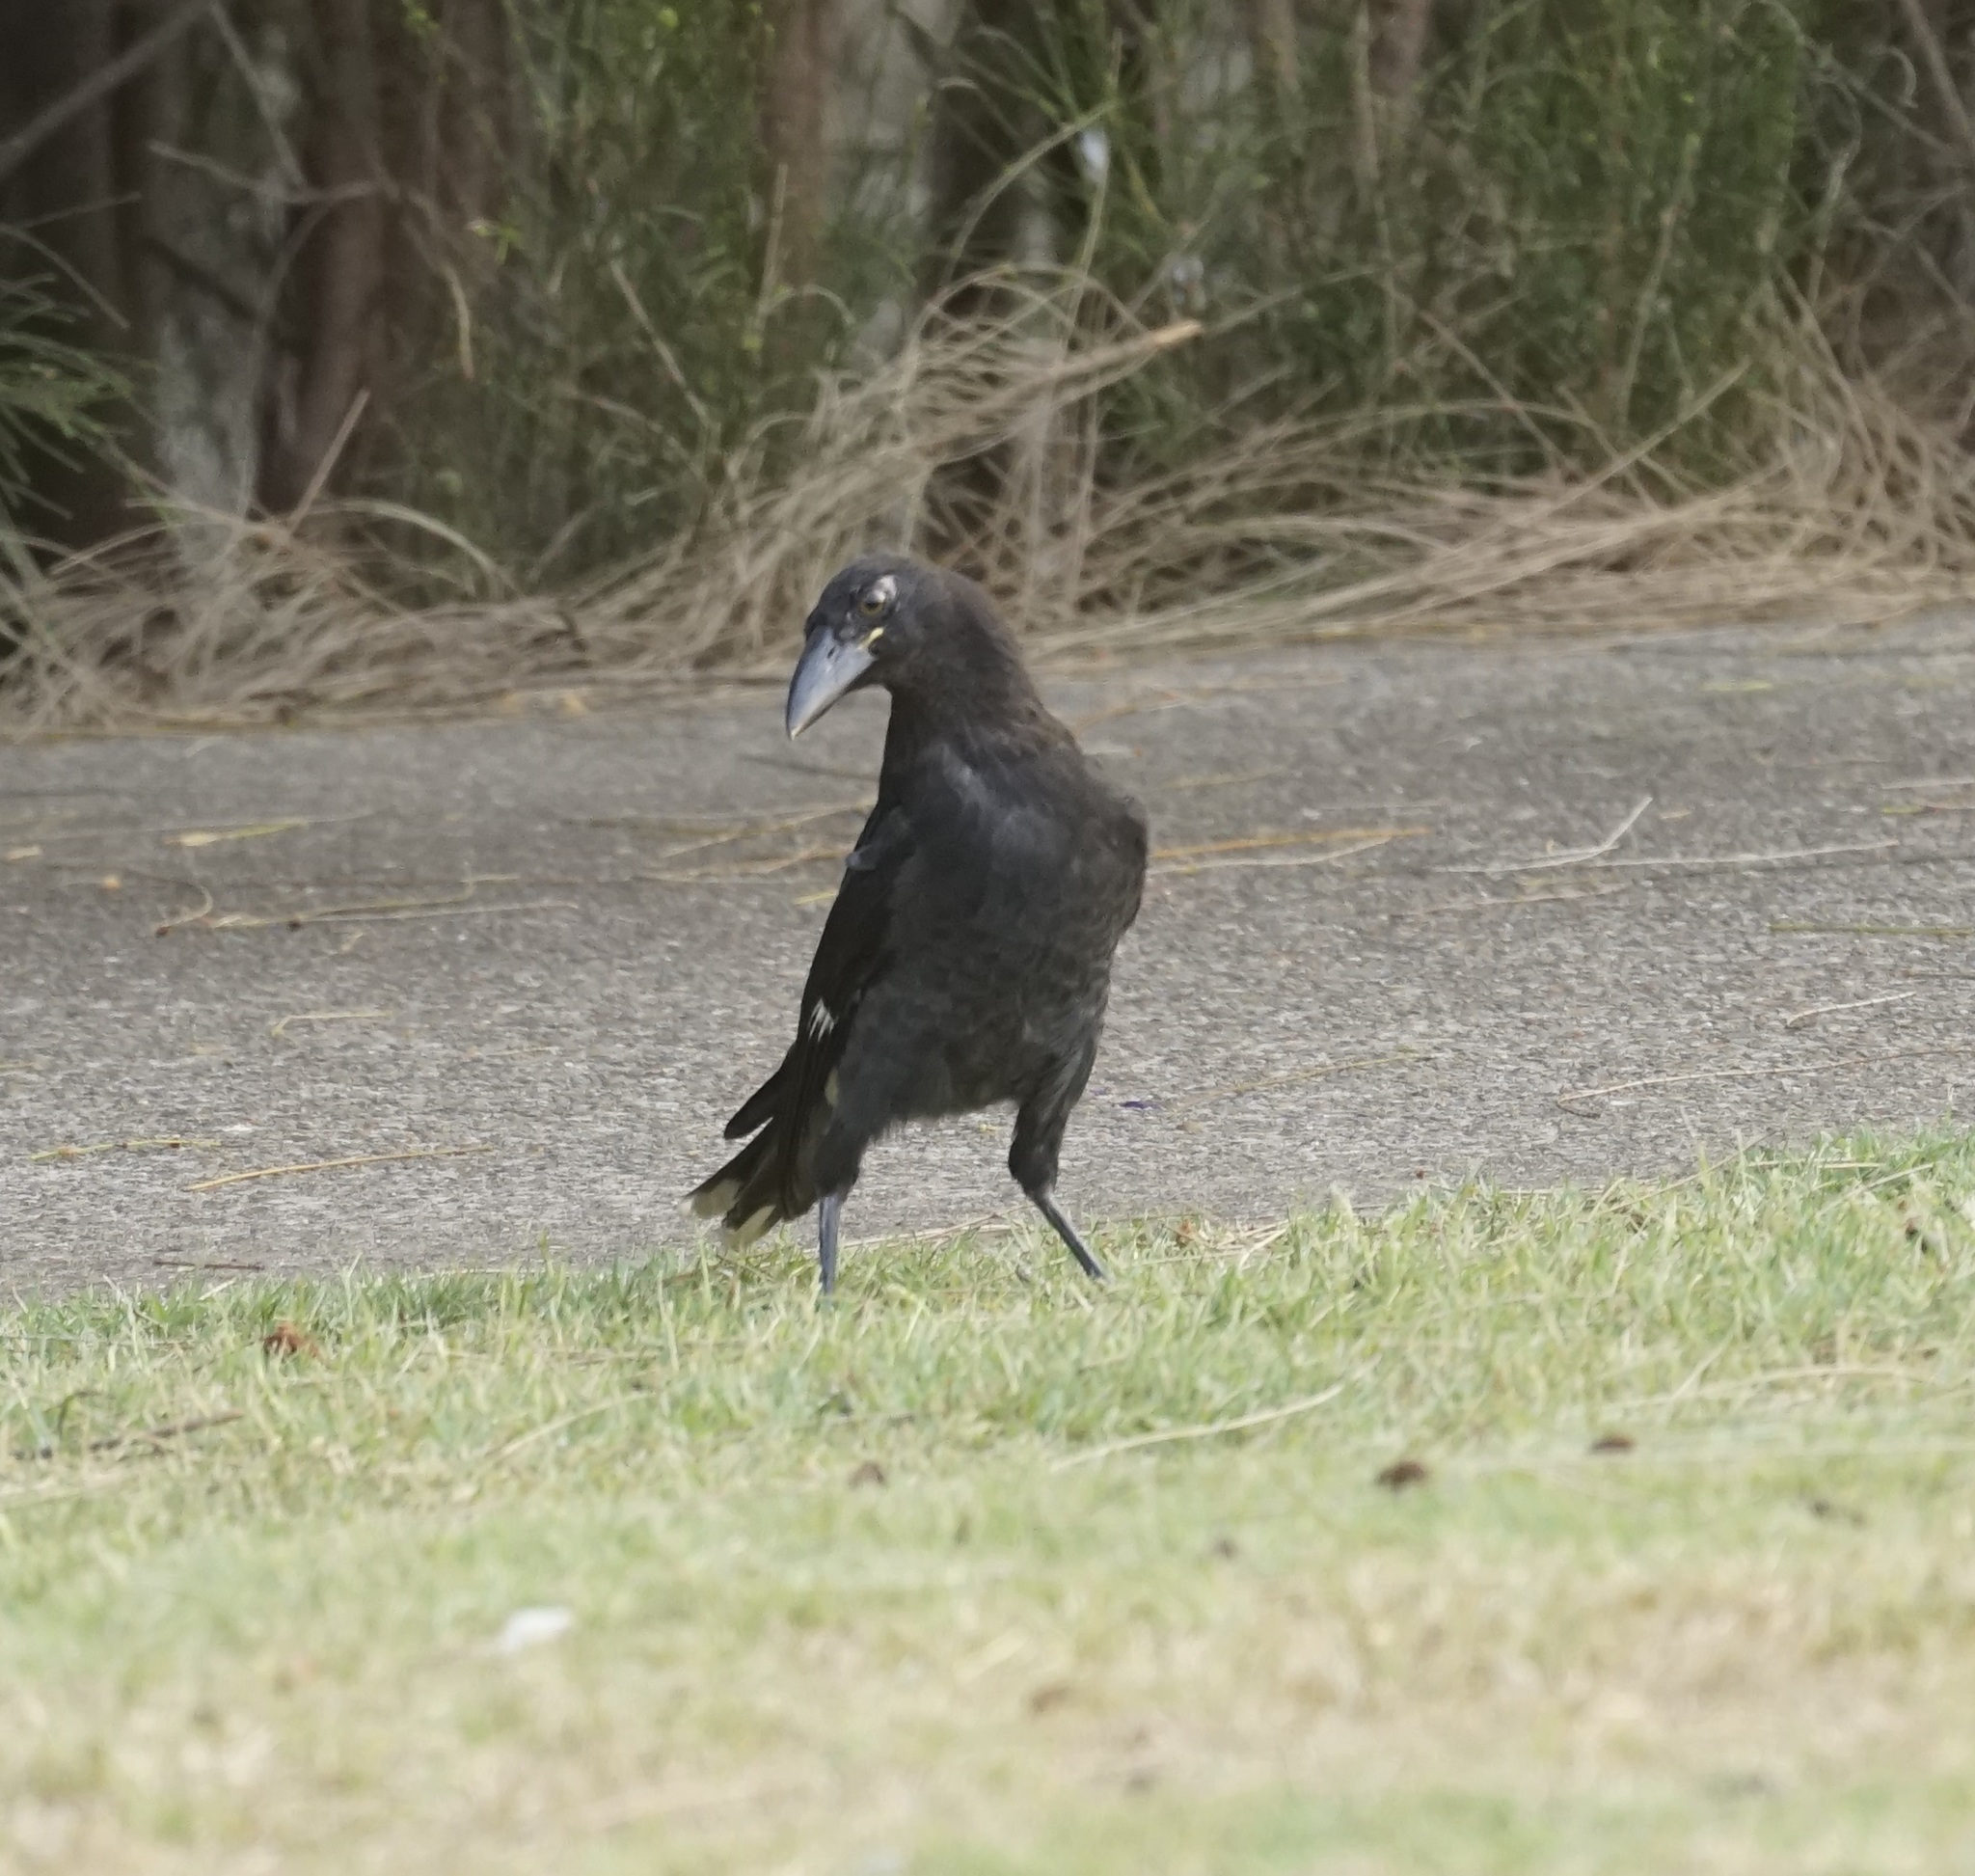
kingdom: Animalia
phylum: Chordata
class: Aves
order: Passeriformes
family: Cracticidae
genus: Strepera
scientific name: Strepera graculina
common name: Pied currawong
